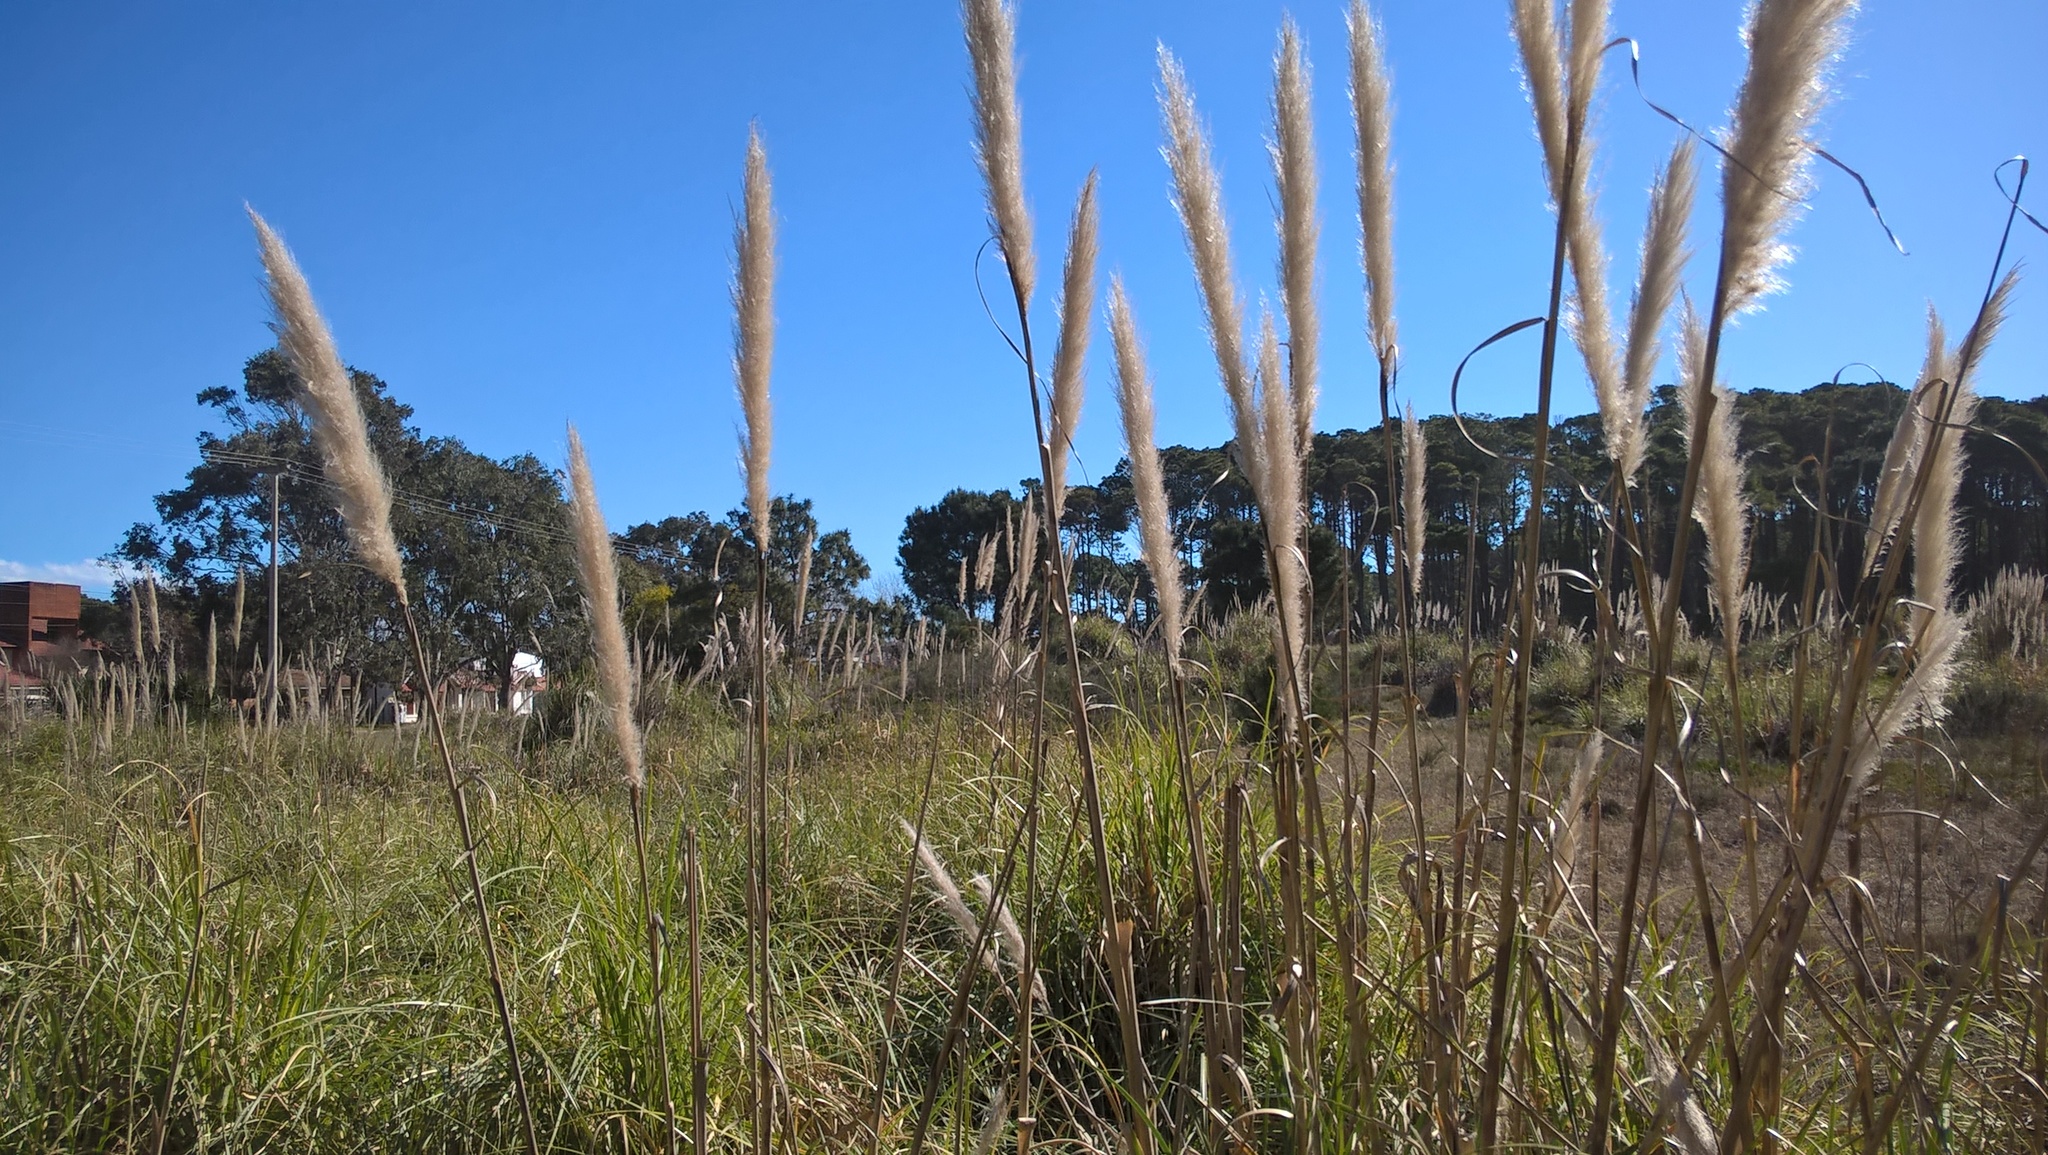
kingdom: Plantae
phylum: Tracheophyta
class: Liliopsida
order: Poales
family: Poaceae
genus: Cortaderia
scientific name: Cortaderia selloana
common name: Uruguayan pampas grass
